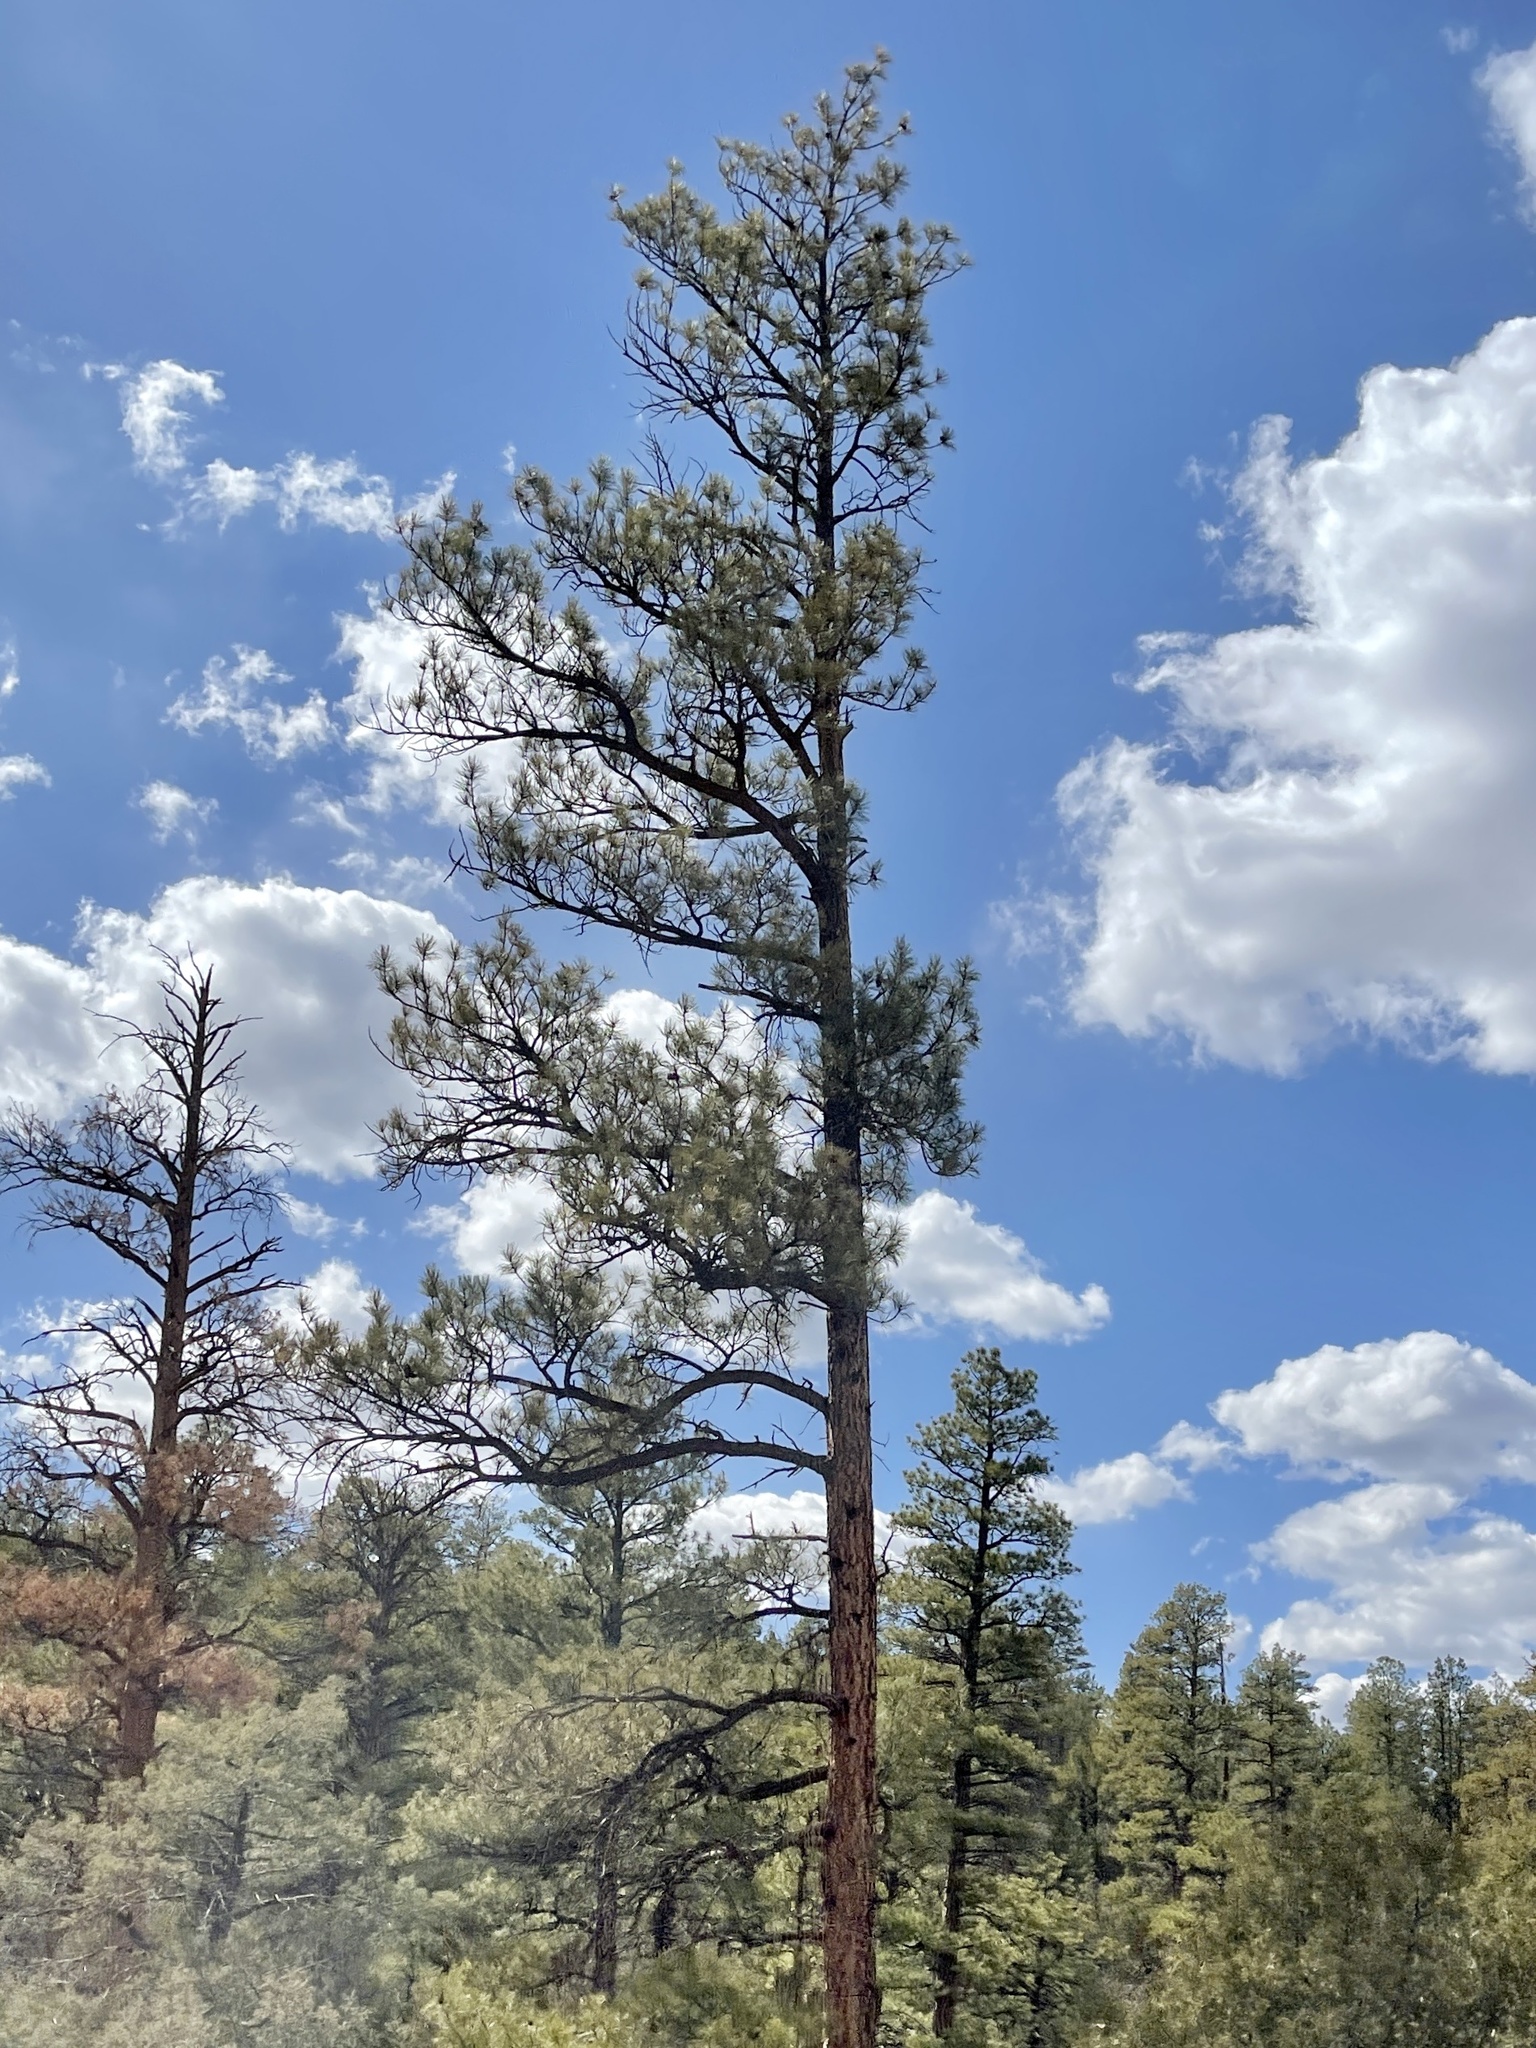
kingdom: Plantae
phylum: Tracheophyta
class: Pinopsida
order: Pinales
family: Pinaceae
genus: Pinus
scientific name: Pinus ponderosa
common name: Western yellow-pine
